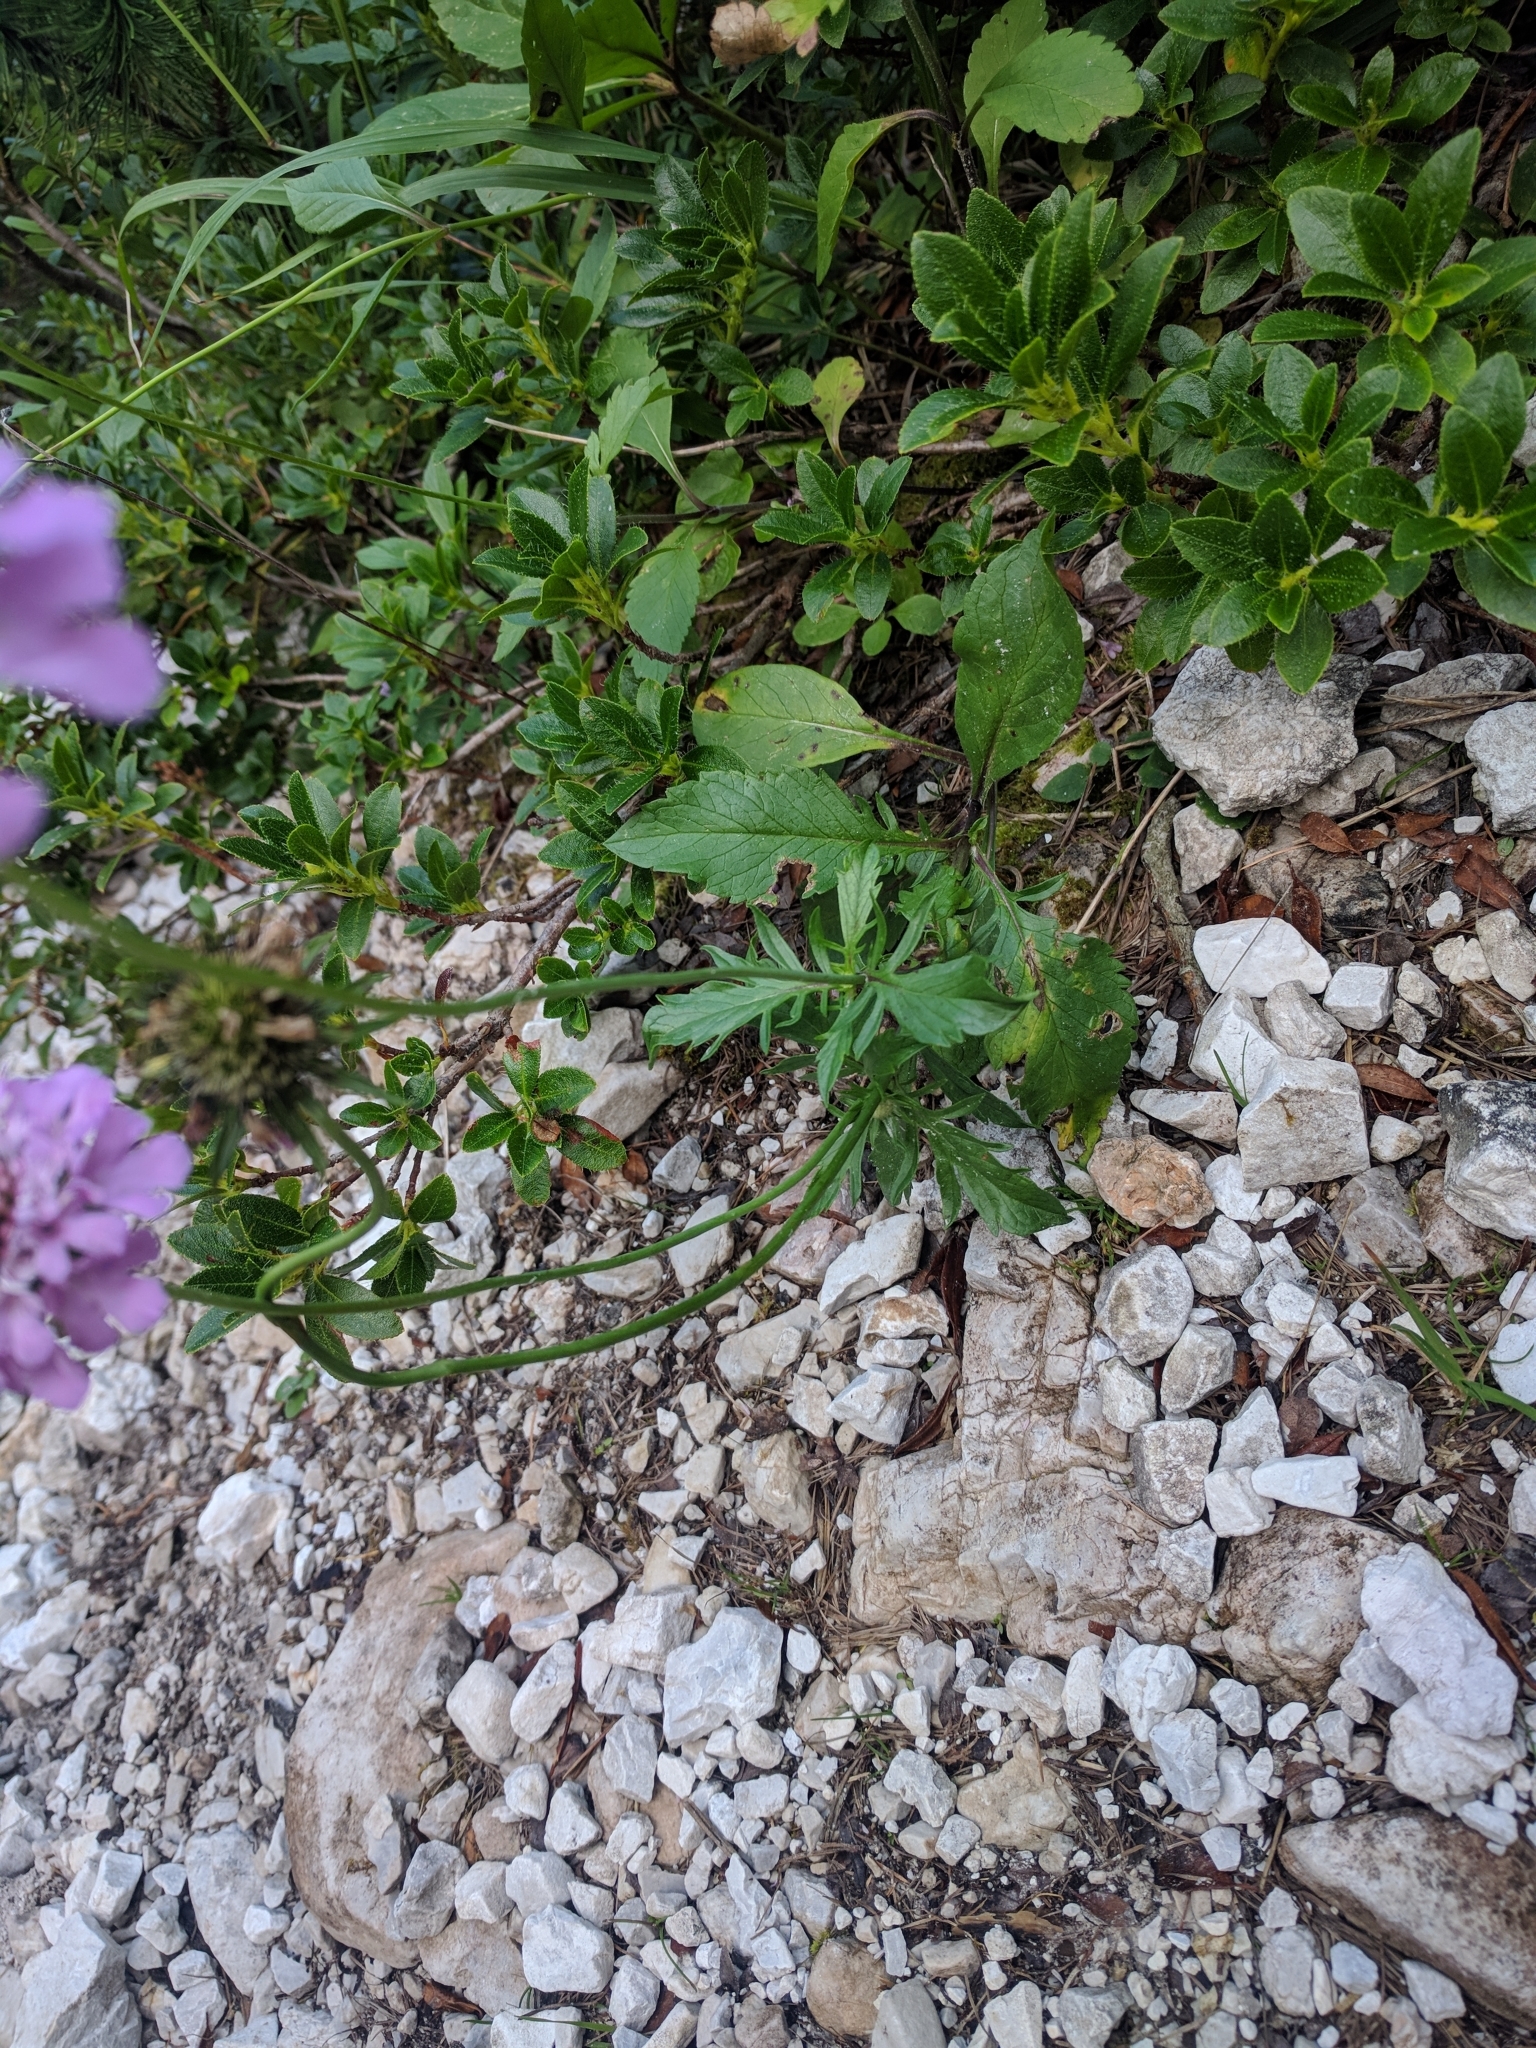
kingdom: Plantae
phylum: Tracheophyta
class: Magnoliopsida
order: Dipsacales
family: Caprifoliaceae
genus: Scabiosa
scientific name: Scabiosa lucida
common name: Shining scabious
